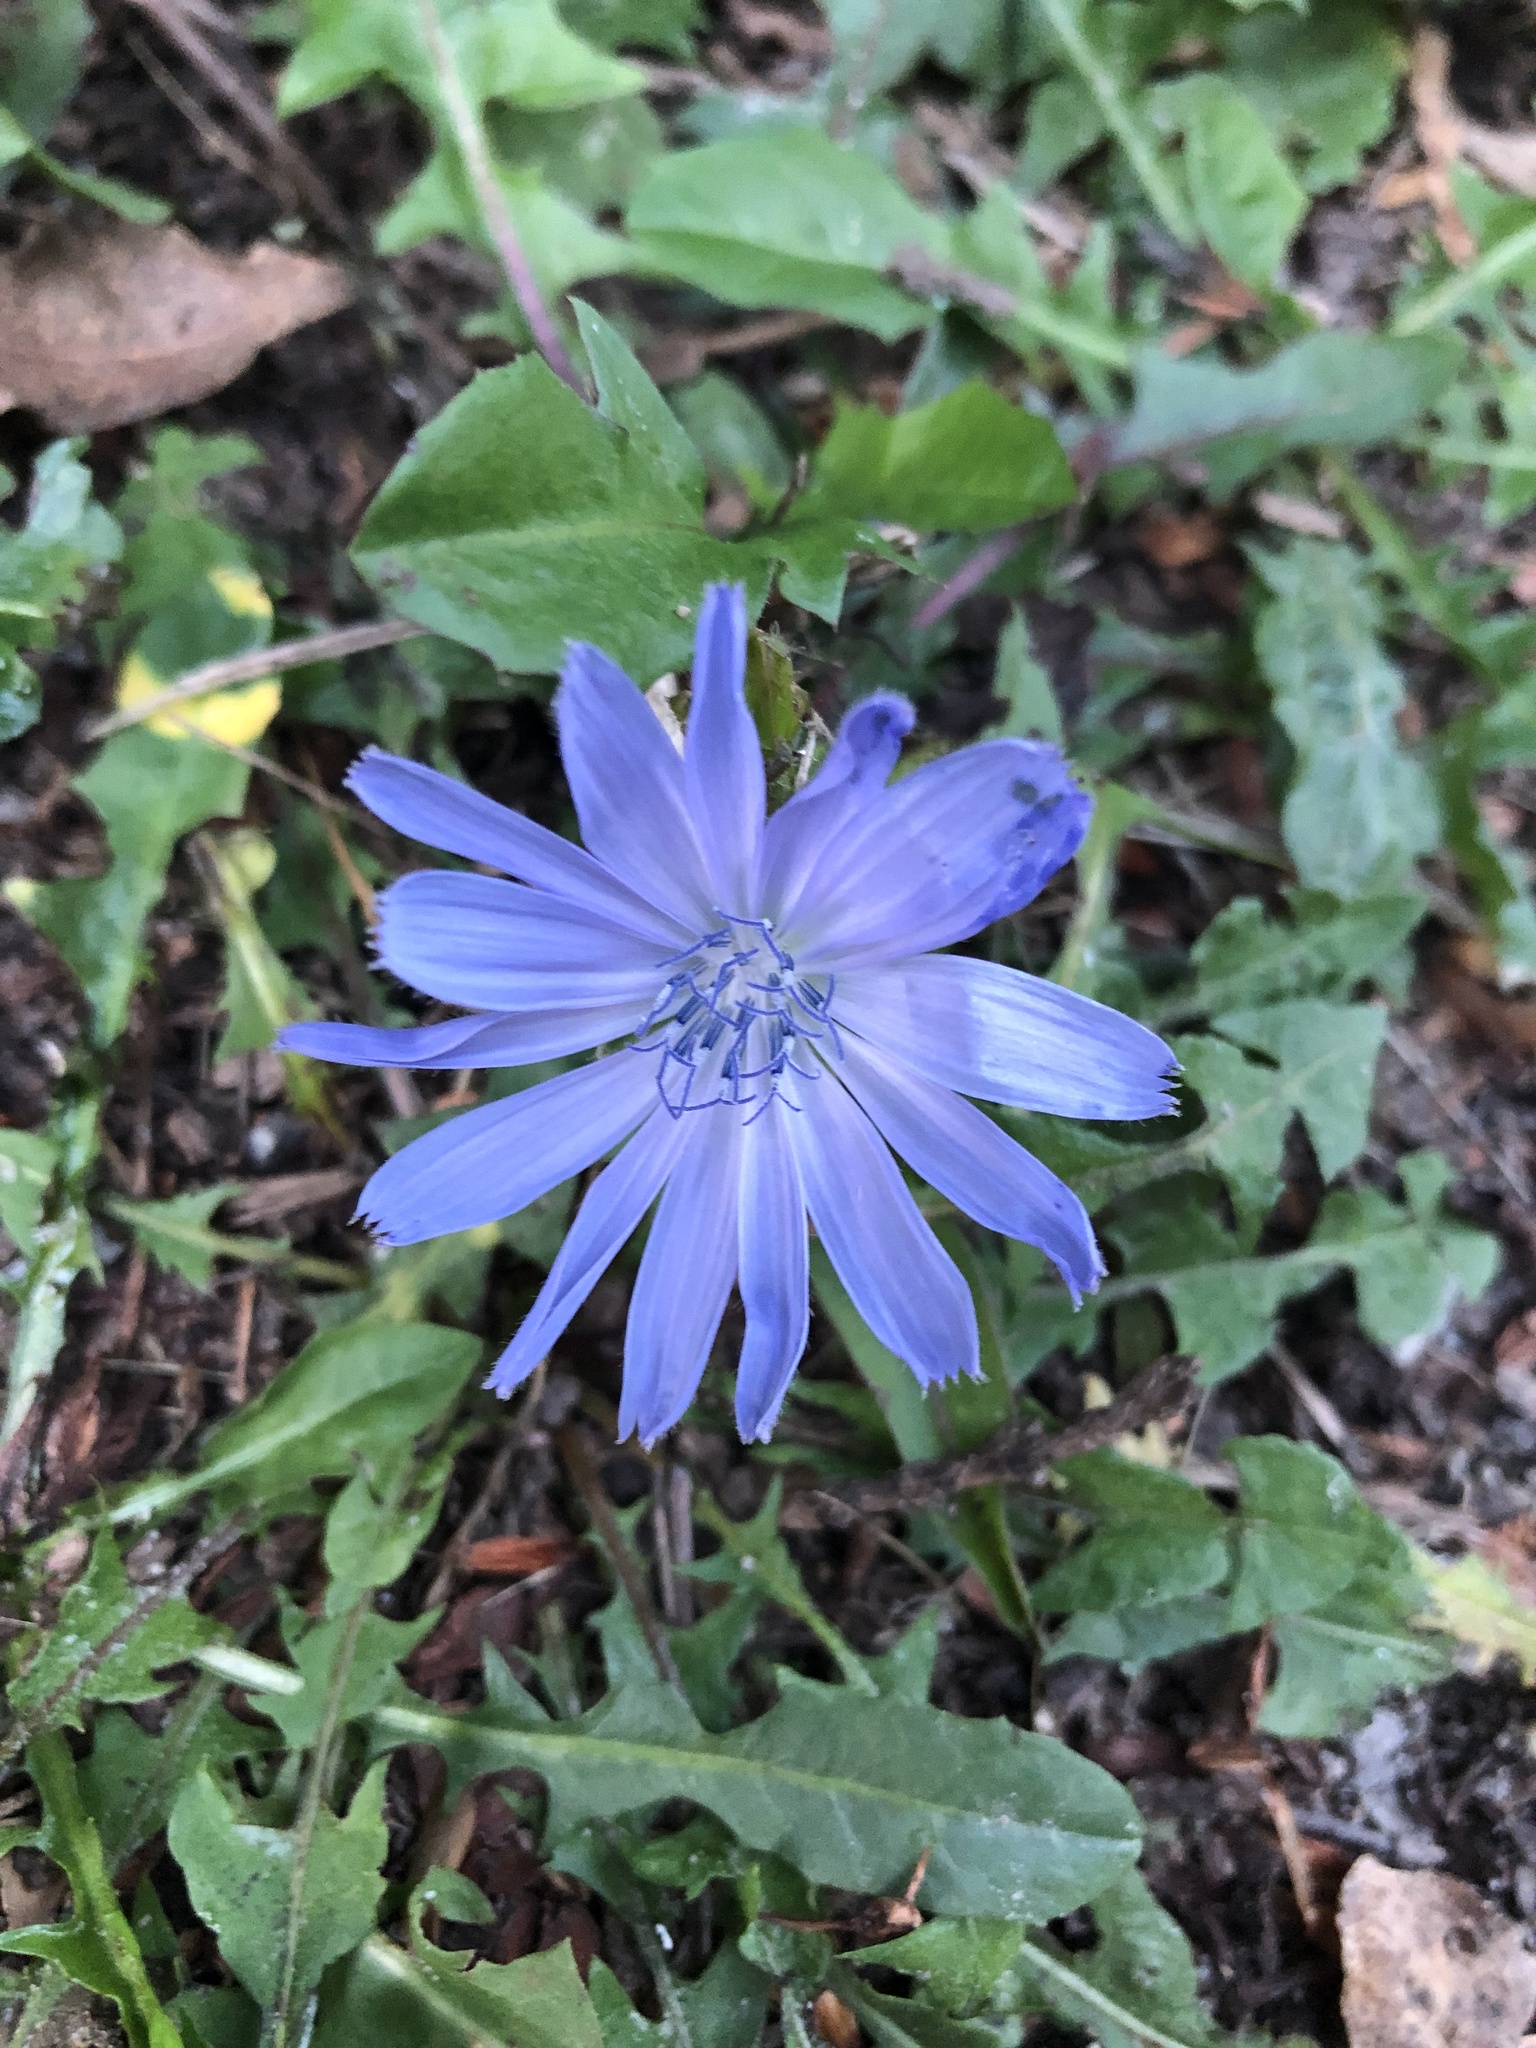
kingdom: Plantae
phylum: Tracheophyta
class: Magnoliopsida
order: Asterales
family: Asteraceae
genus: Cichorium
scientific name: Cichorium intybus
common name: Chicory
